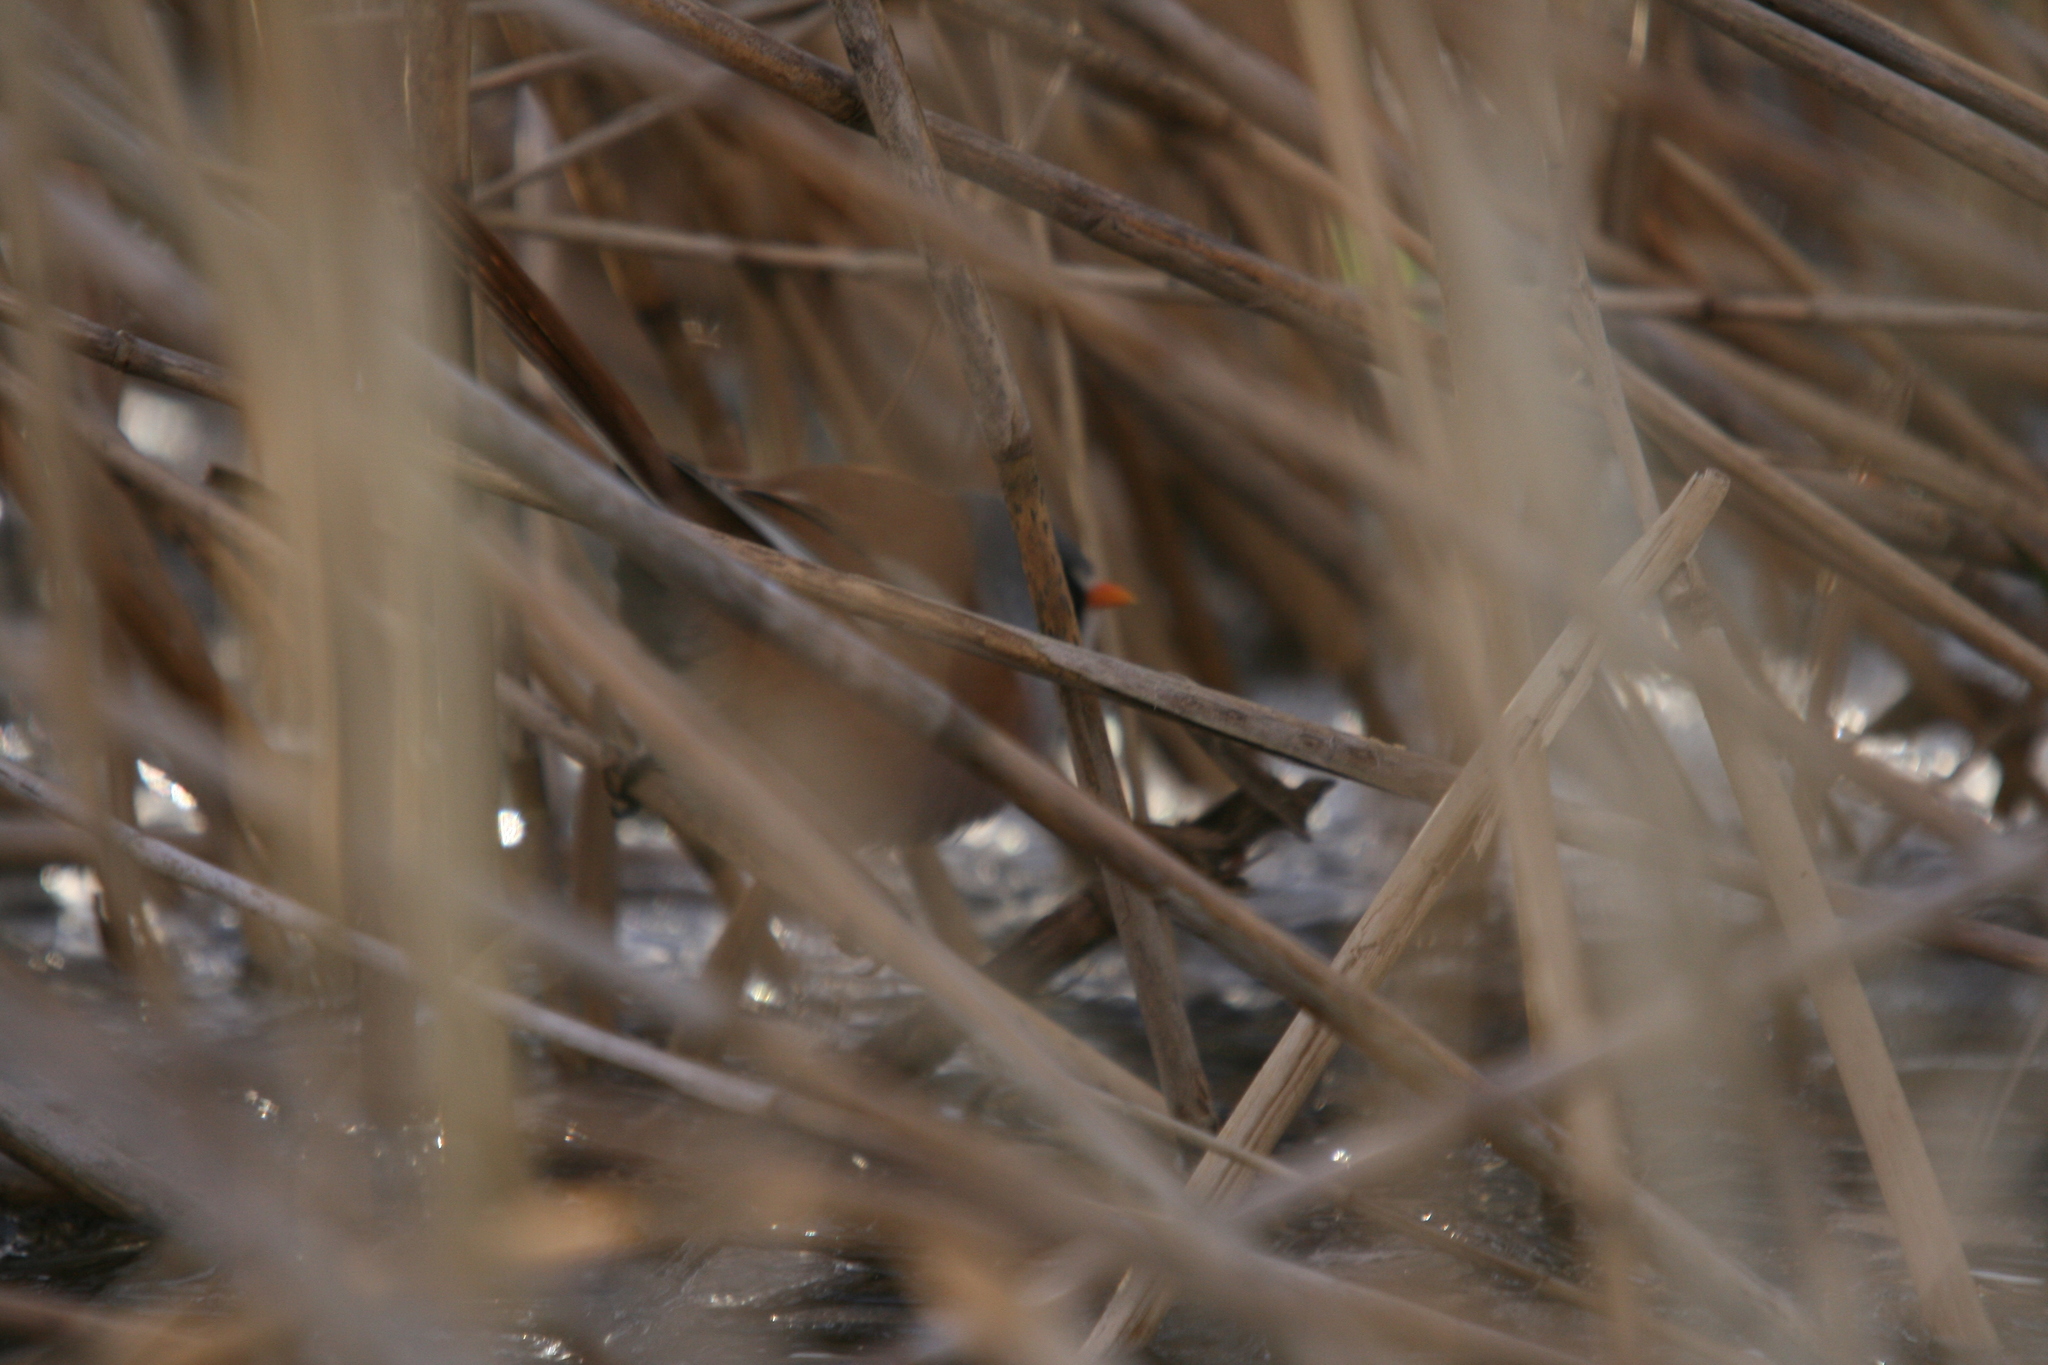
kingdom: Animalia
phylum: Chordata
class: Aves
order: Passeriformes
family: Panuridae
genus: Panurus
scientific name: Panurus biarmicus
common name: Bearded reedling
